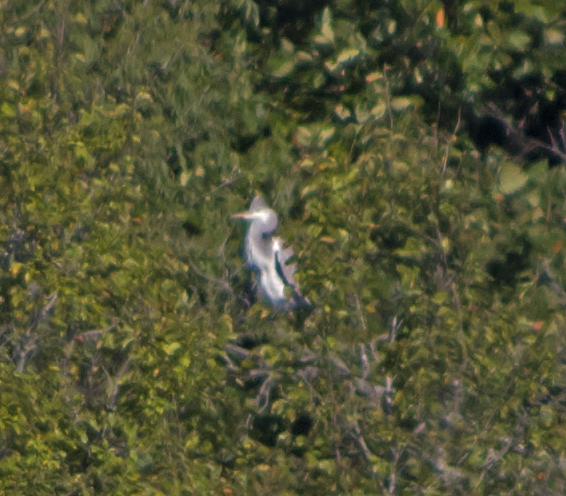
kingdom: Animalia
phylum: Chordata
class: Aves
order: Pelecaniformes
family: Ardeidae
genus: Ardea
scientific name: Ardea cinerea
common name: Grey heron
